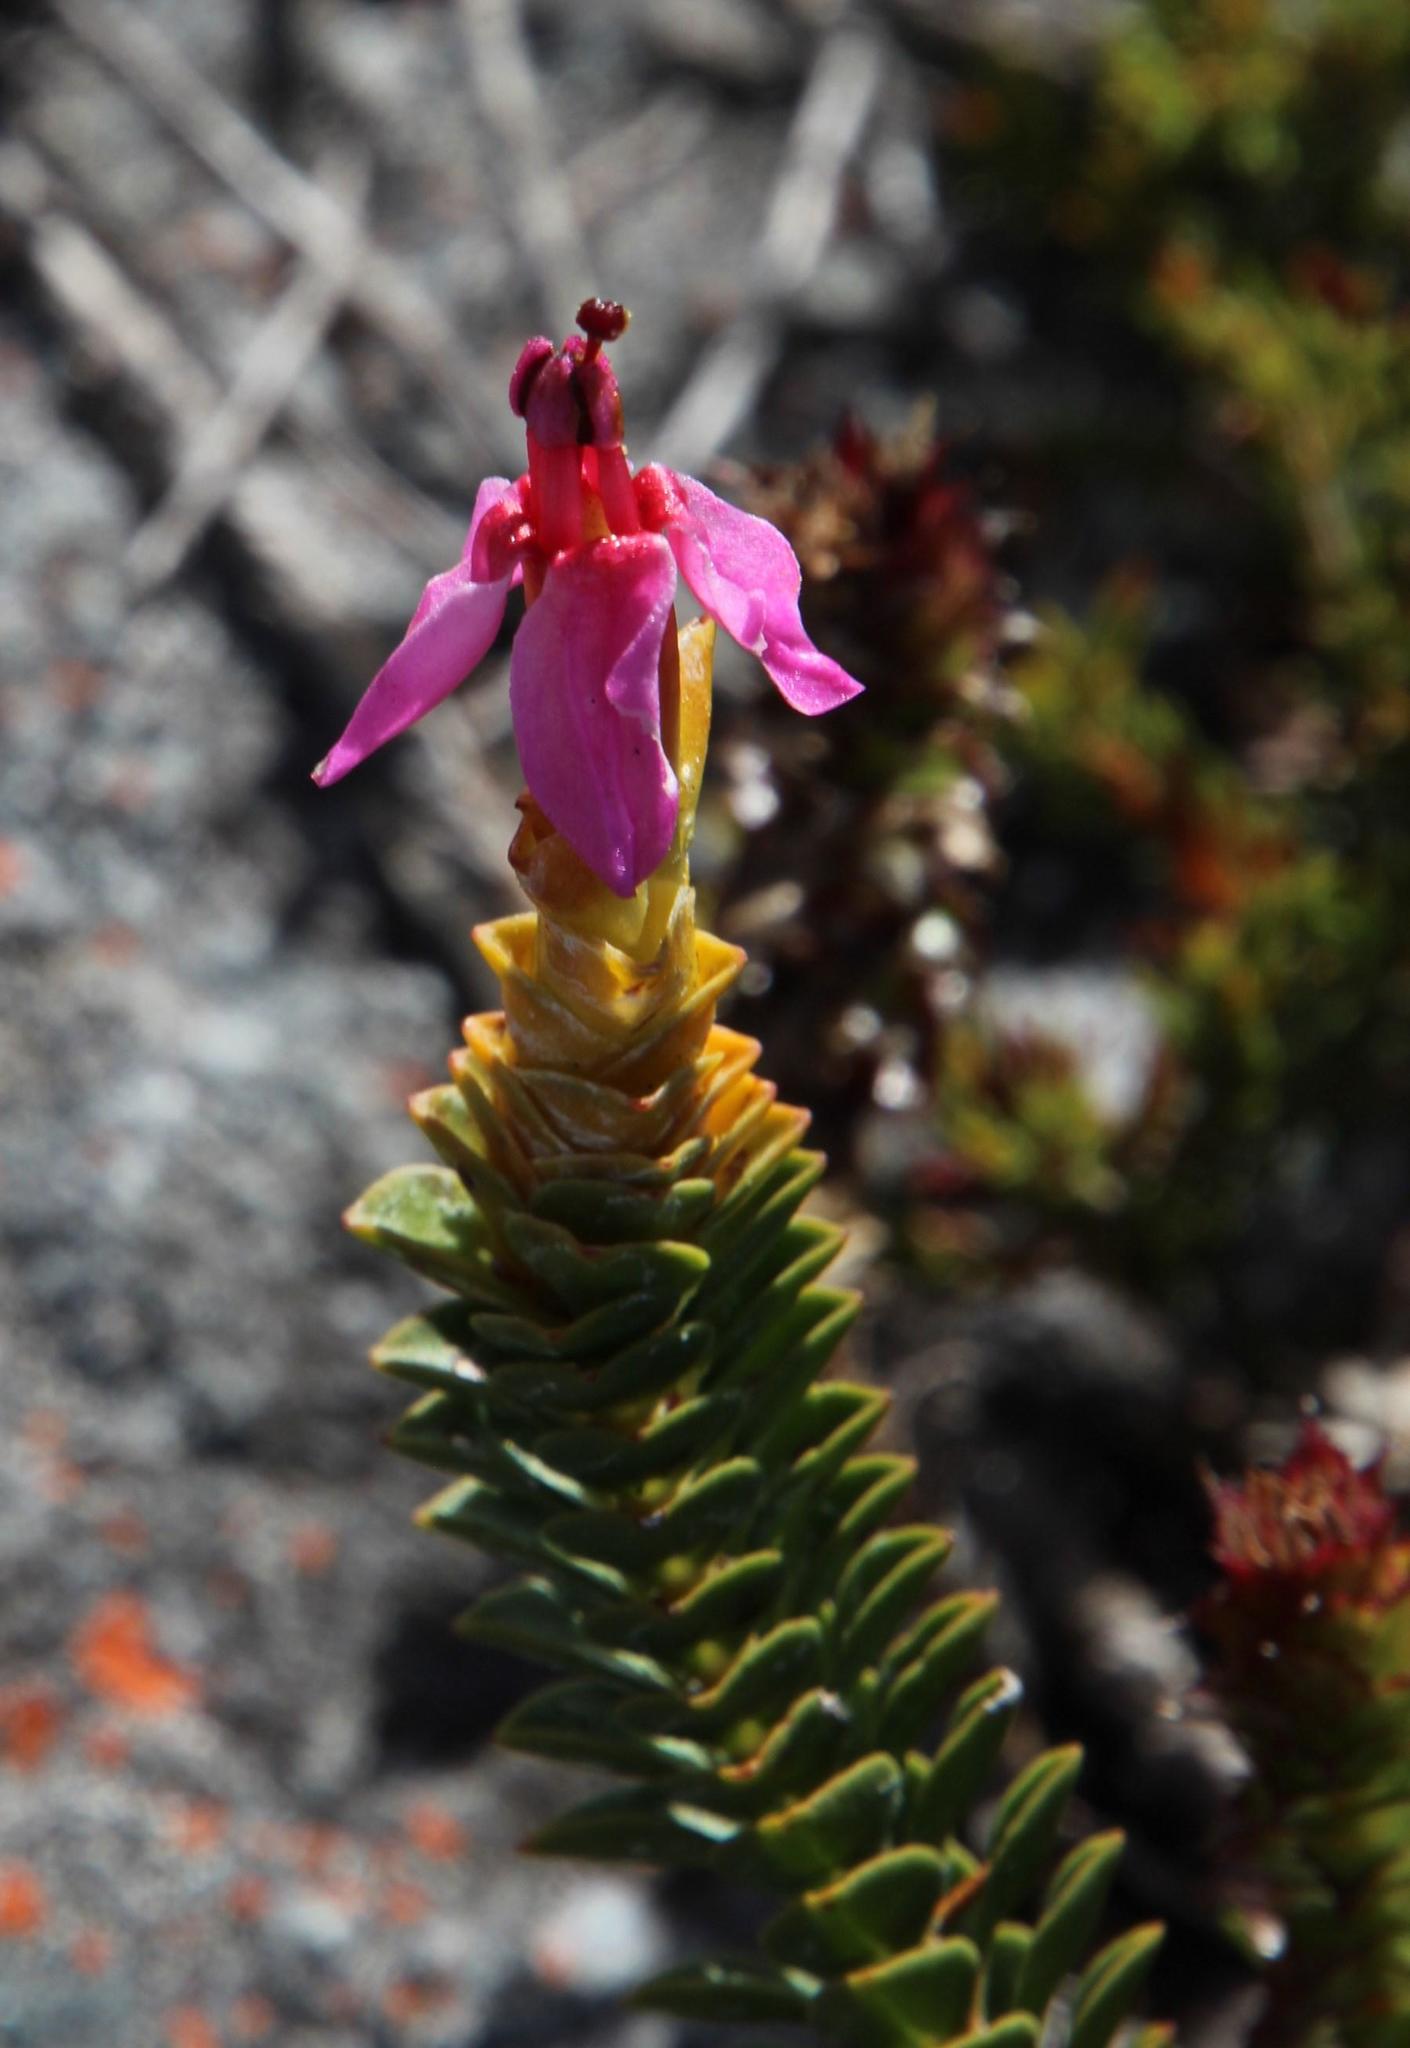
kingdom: Plantae
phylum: Tracheophyta
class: Magnoliopsida
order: Myrtales
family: Penaeaceae
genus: Saltera
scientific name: Saltera sarcocolla
